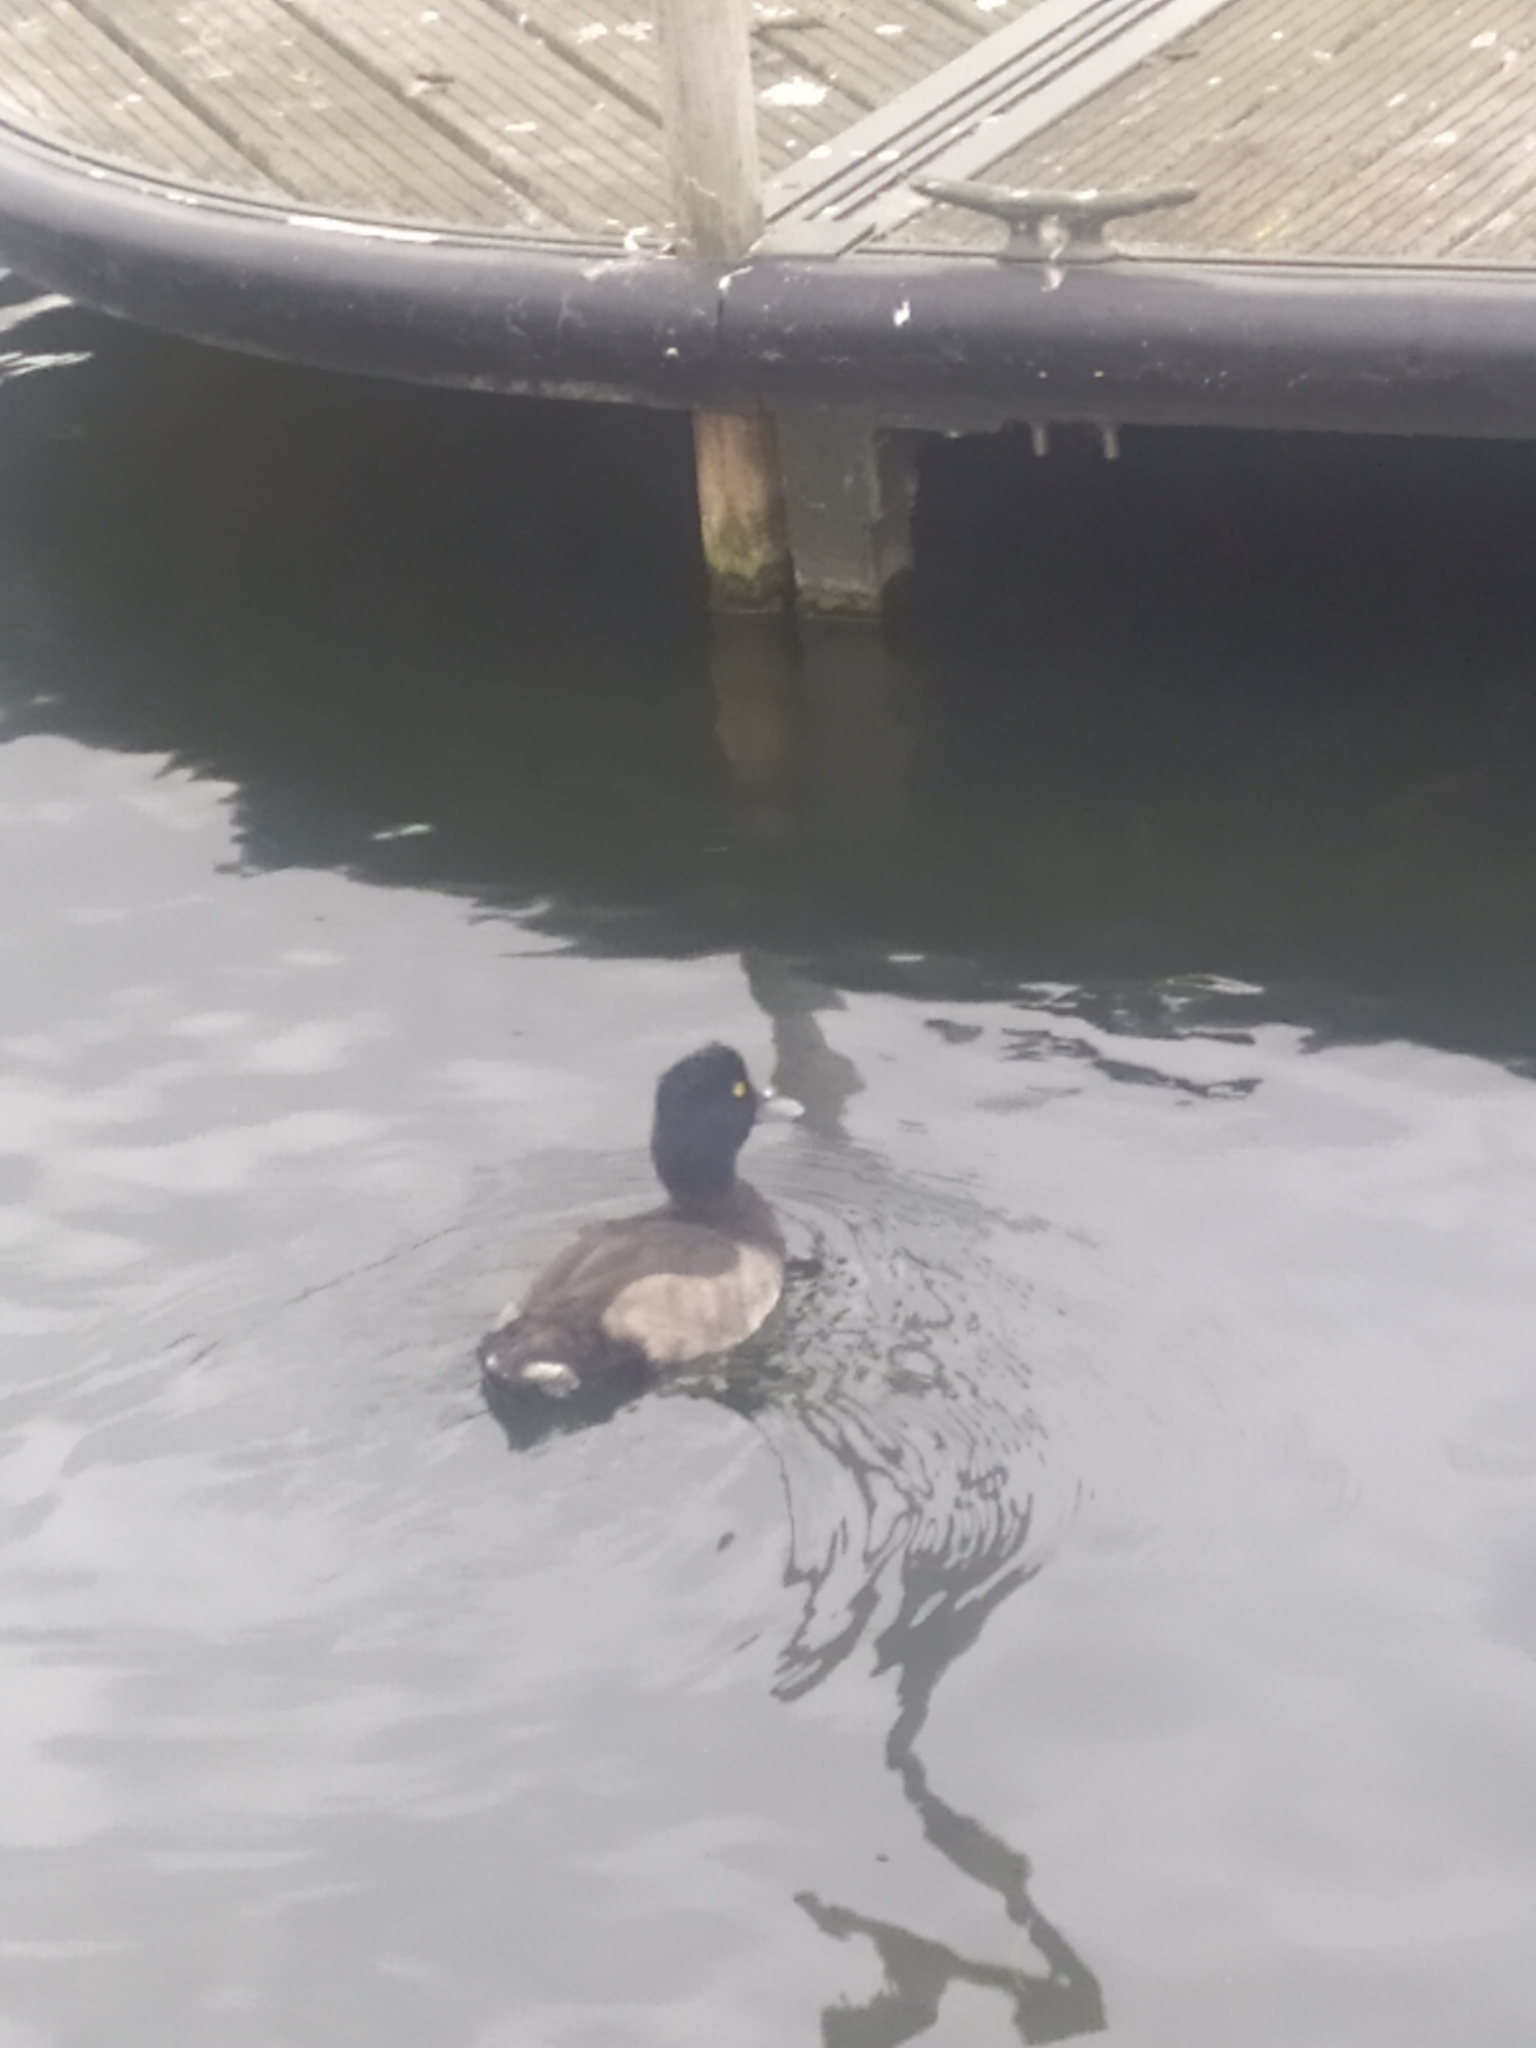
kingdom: Animalia
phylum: Chordata
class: Aves
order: Anseriformes
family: Anatidae
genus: Aythya
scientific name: Aythya fuligula
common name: Tufted duck
